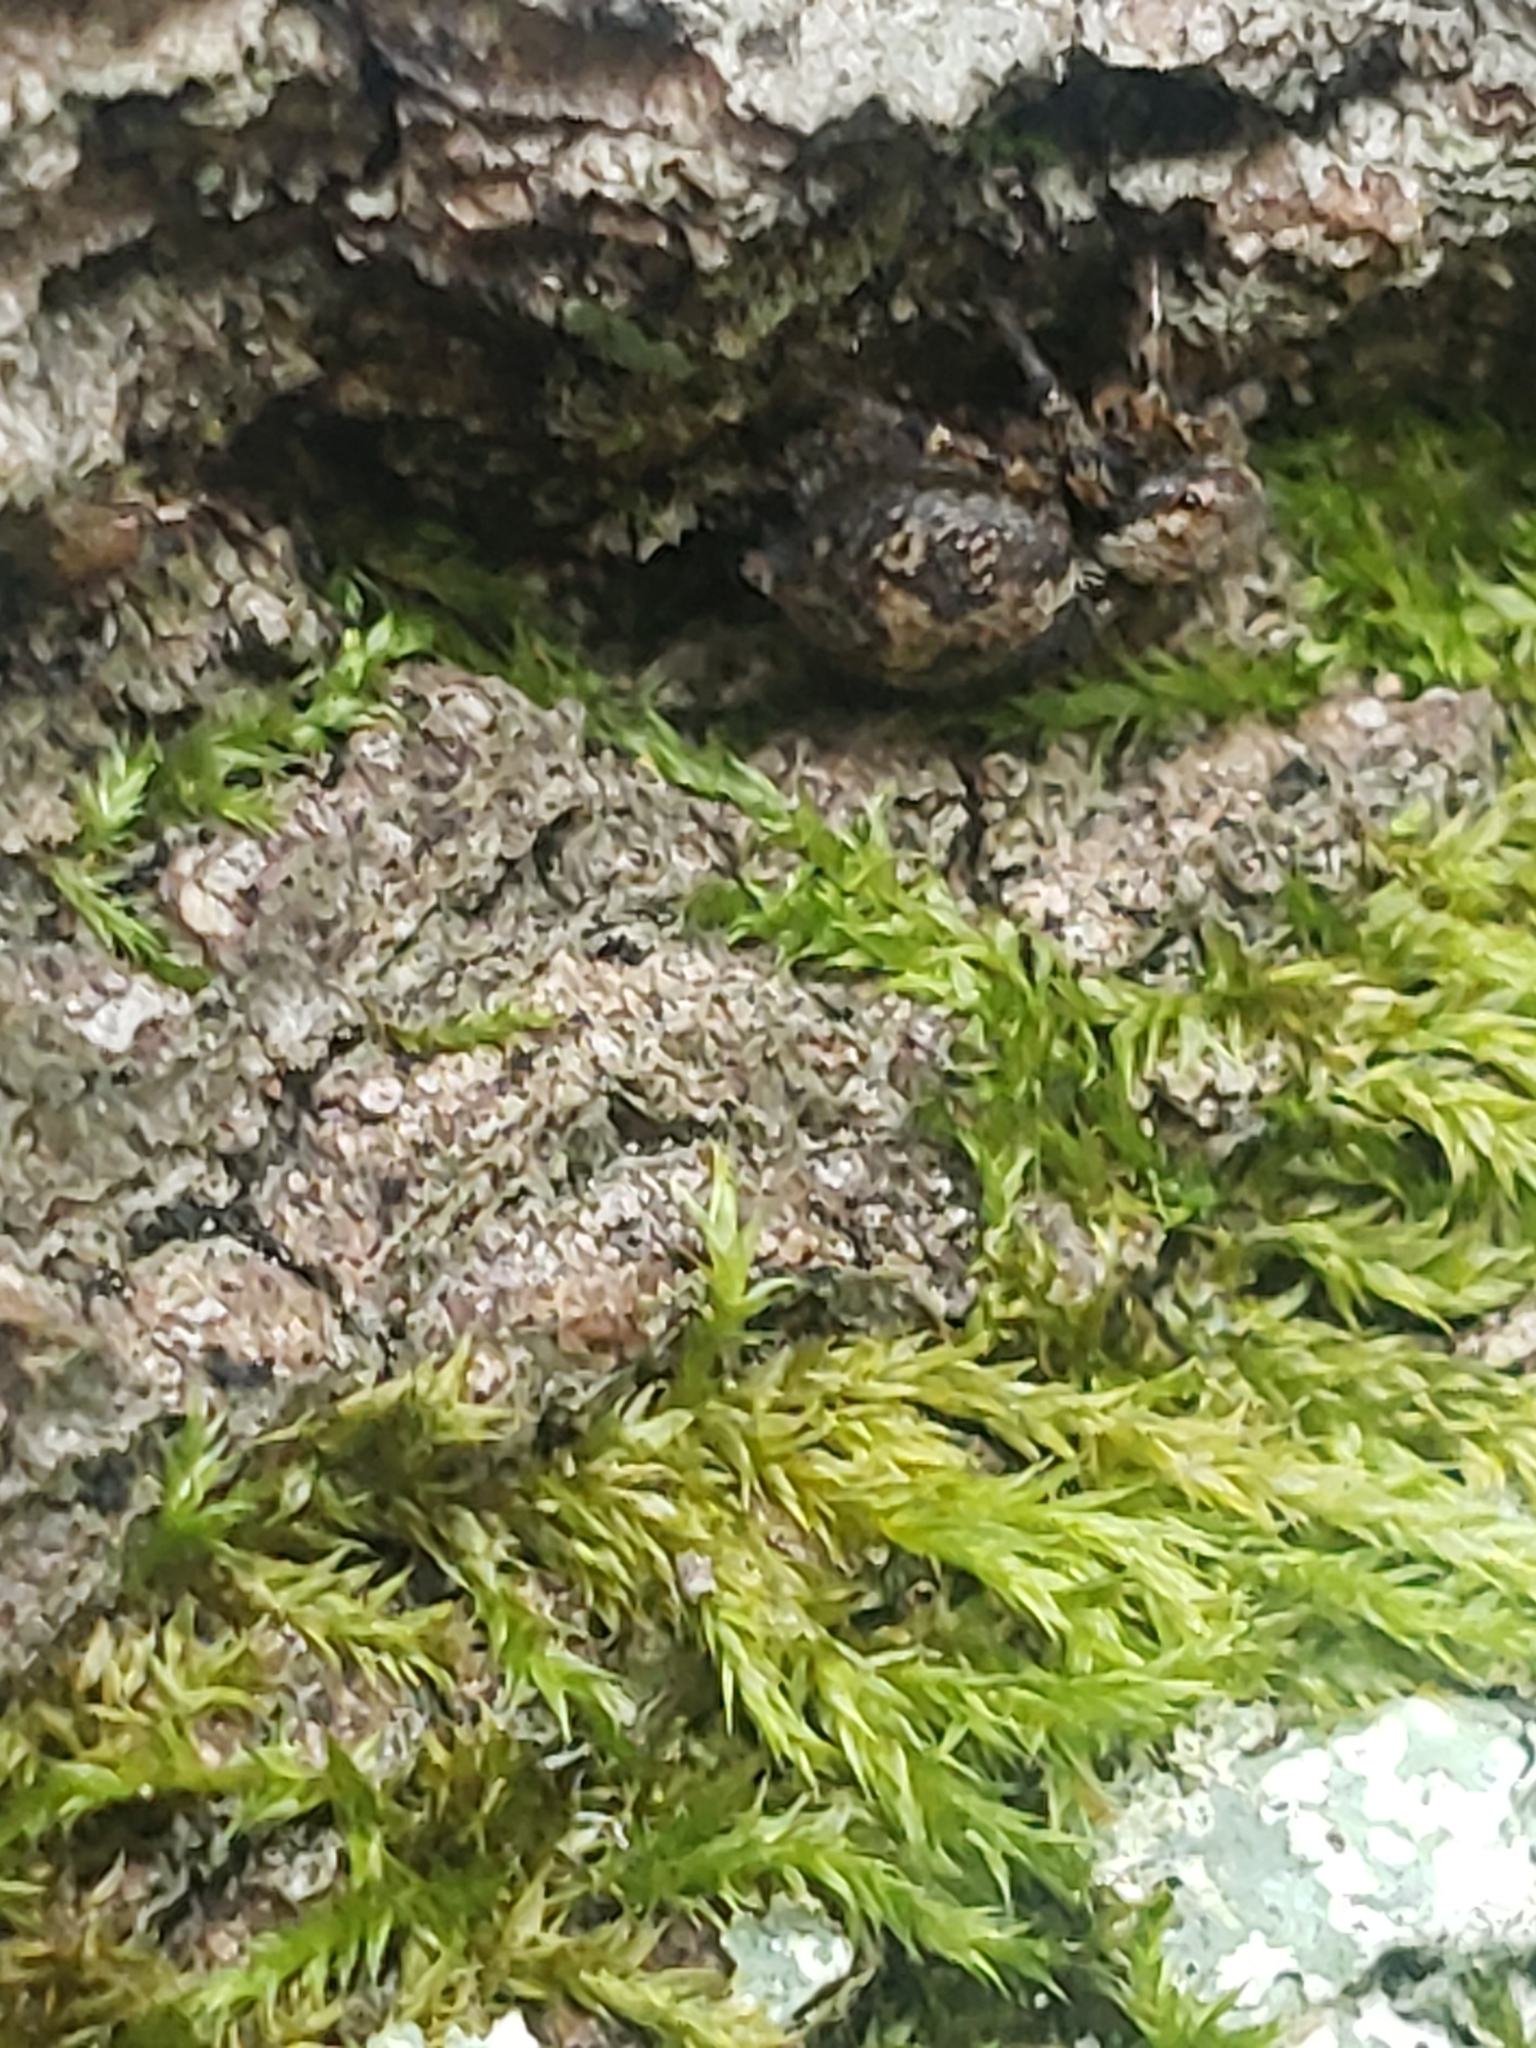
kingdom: Animalia
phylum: Arthropoda
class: Arachnida
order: Araneae
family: Salticidae
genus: Naphrys
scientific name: Naphrys pulex
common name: Flea jumping spider
